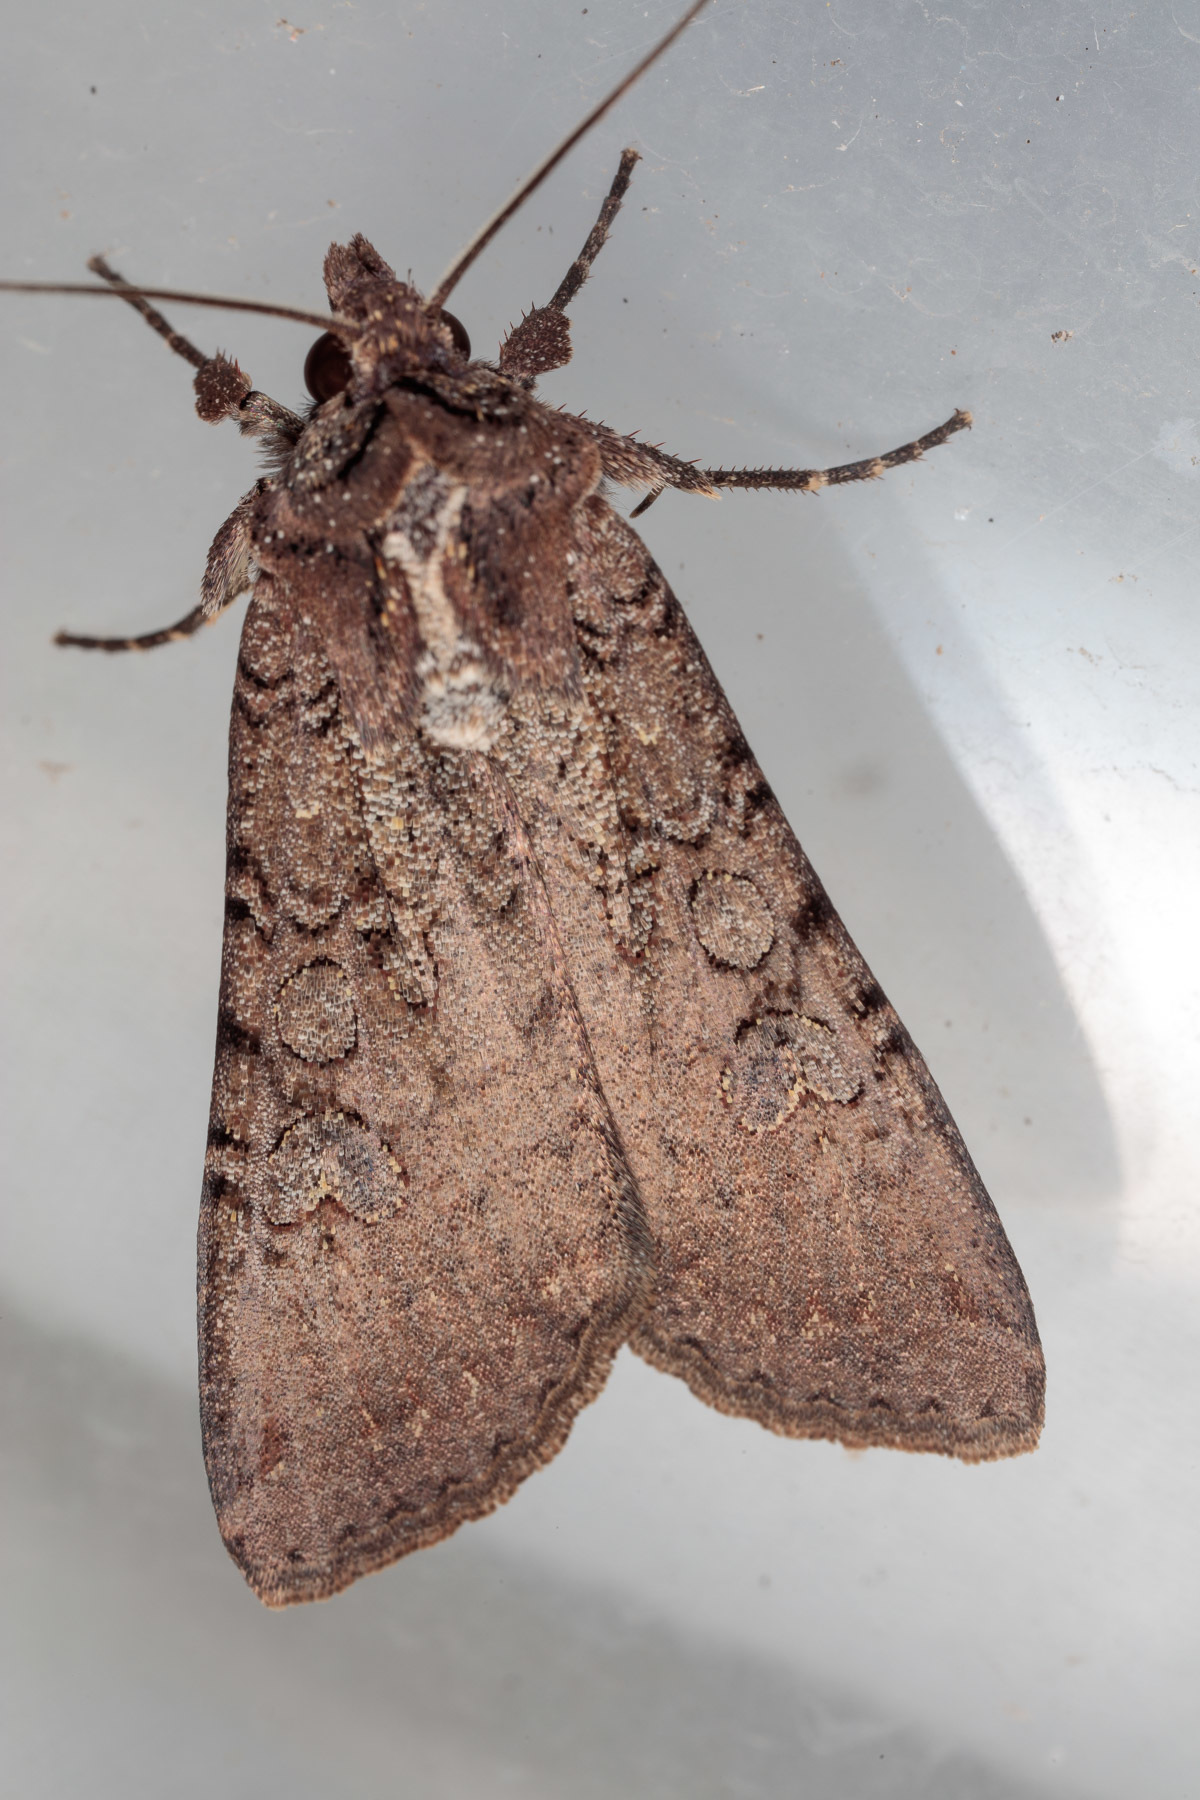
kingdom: Animalia
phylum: Arthropoda
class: Insecta
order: Lepidoptera
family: Noctuidae
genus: Peridroma
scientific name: Peridroma saucia
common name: Pearly underwing
